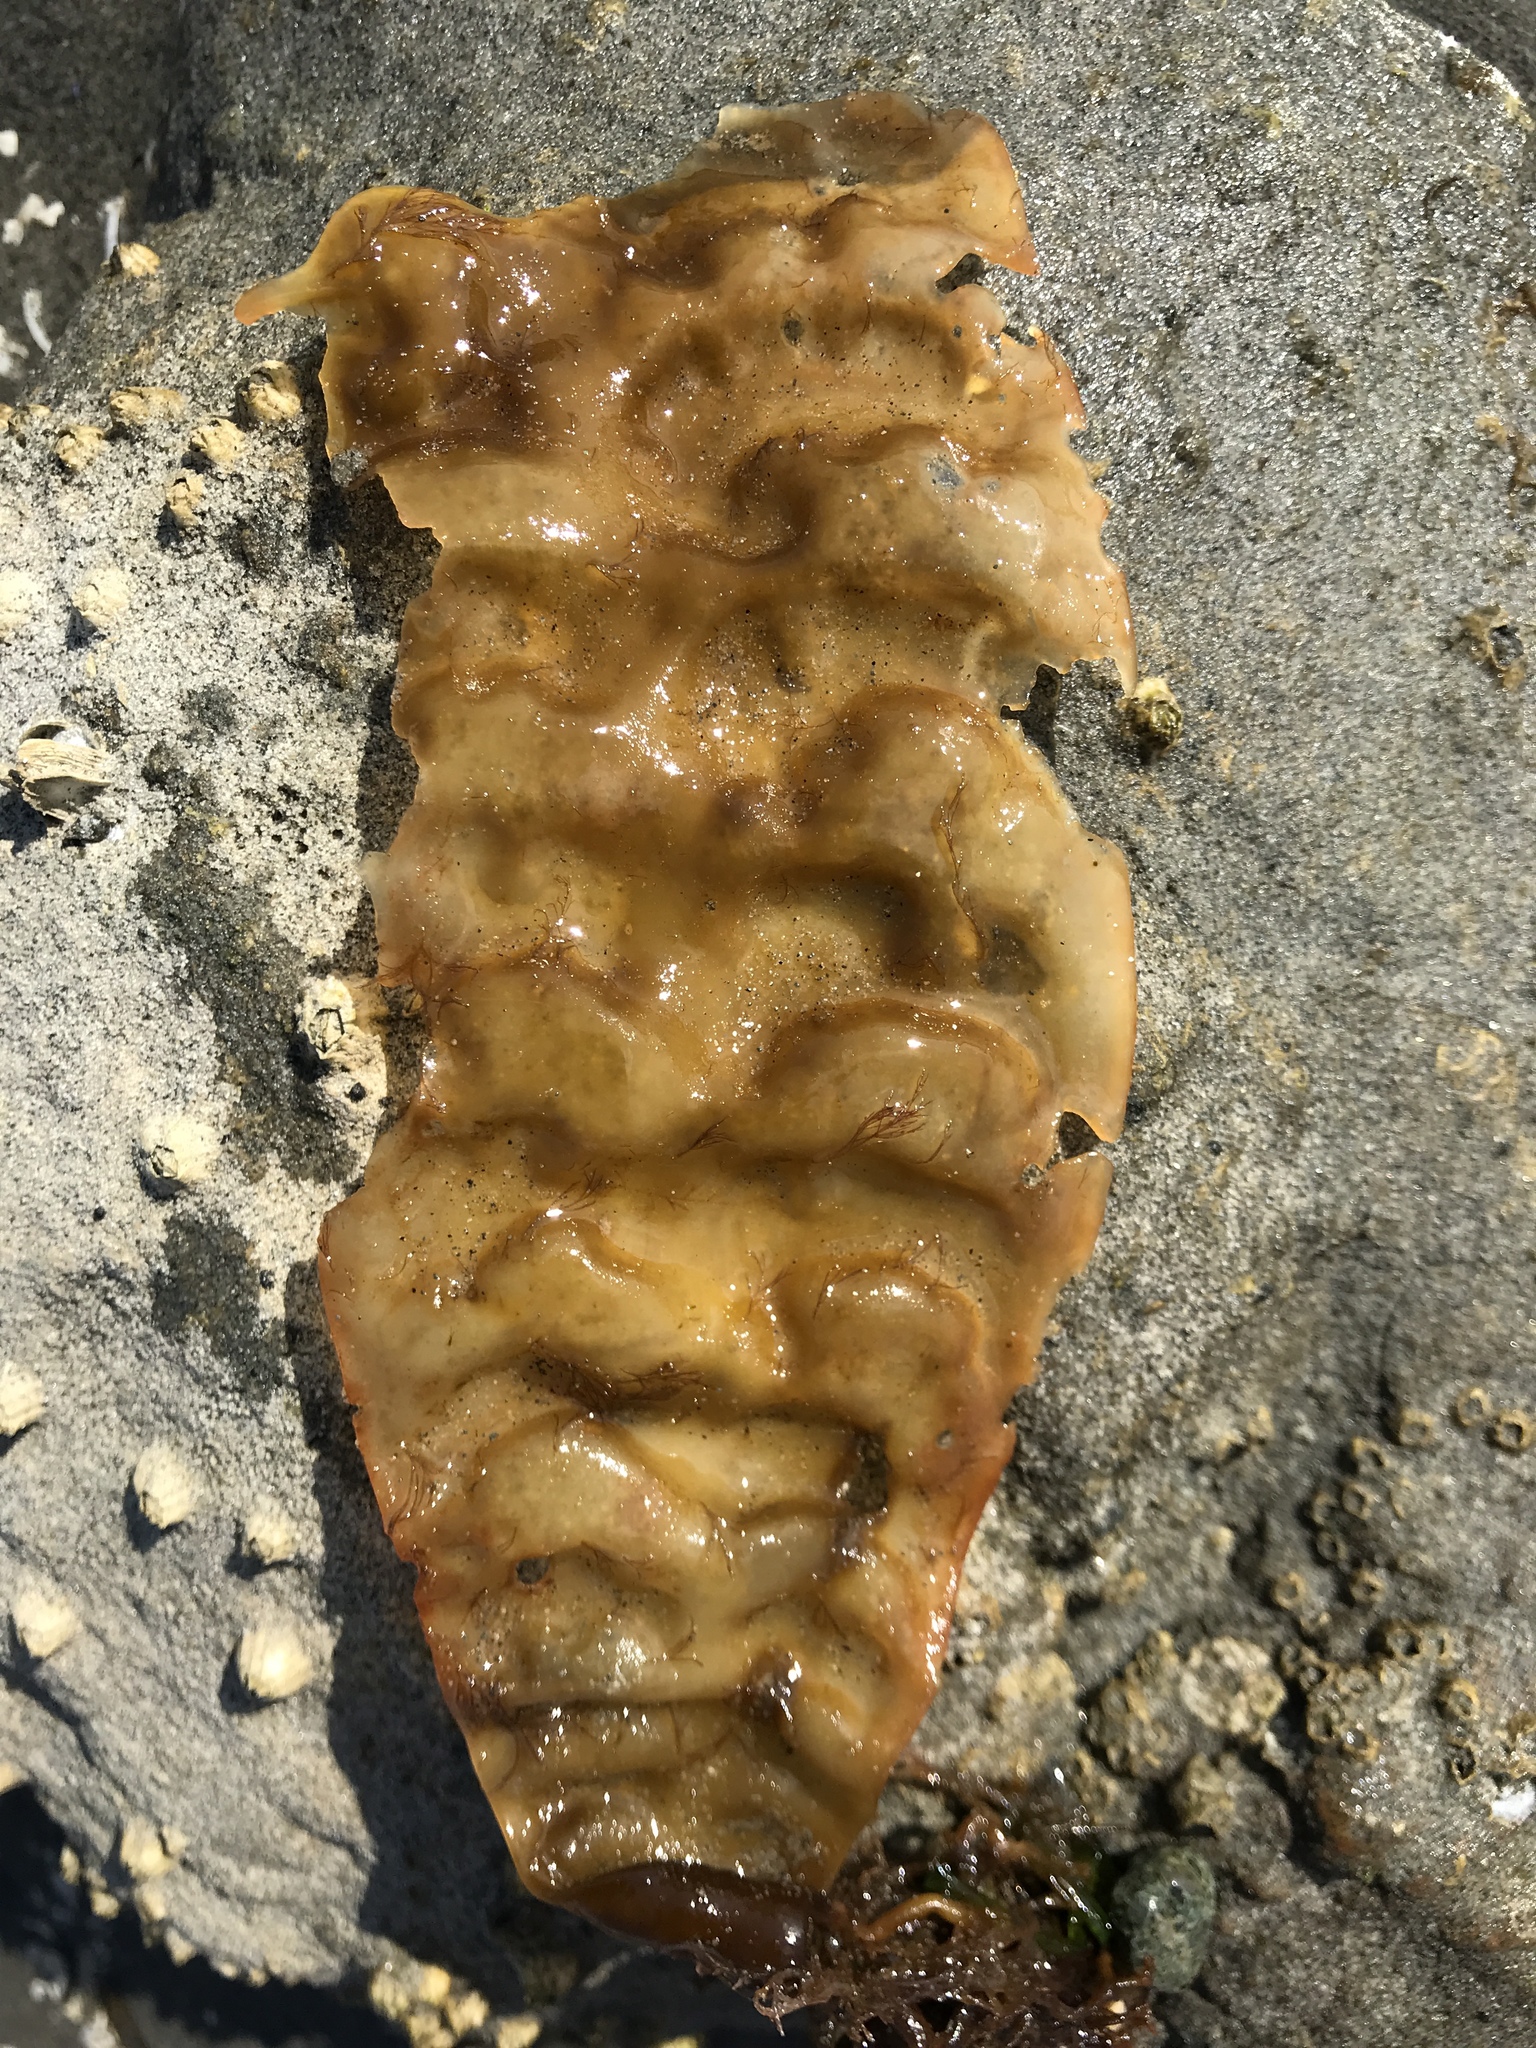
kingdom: Chromista
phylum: Ochrophyta
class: Phaeophyceae
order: Laminariales
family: Laminariaceae
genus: Saccharina
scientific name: Saccharina latissima
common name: Poor man's weather glass
